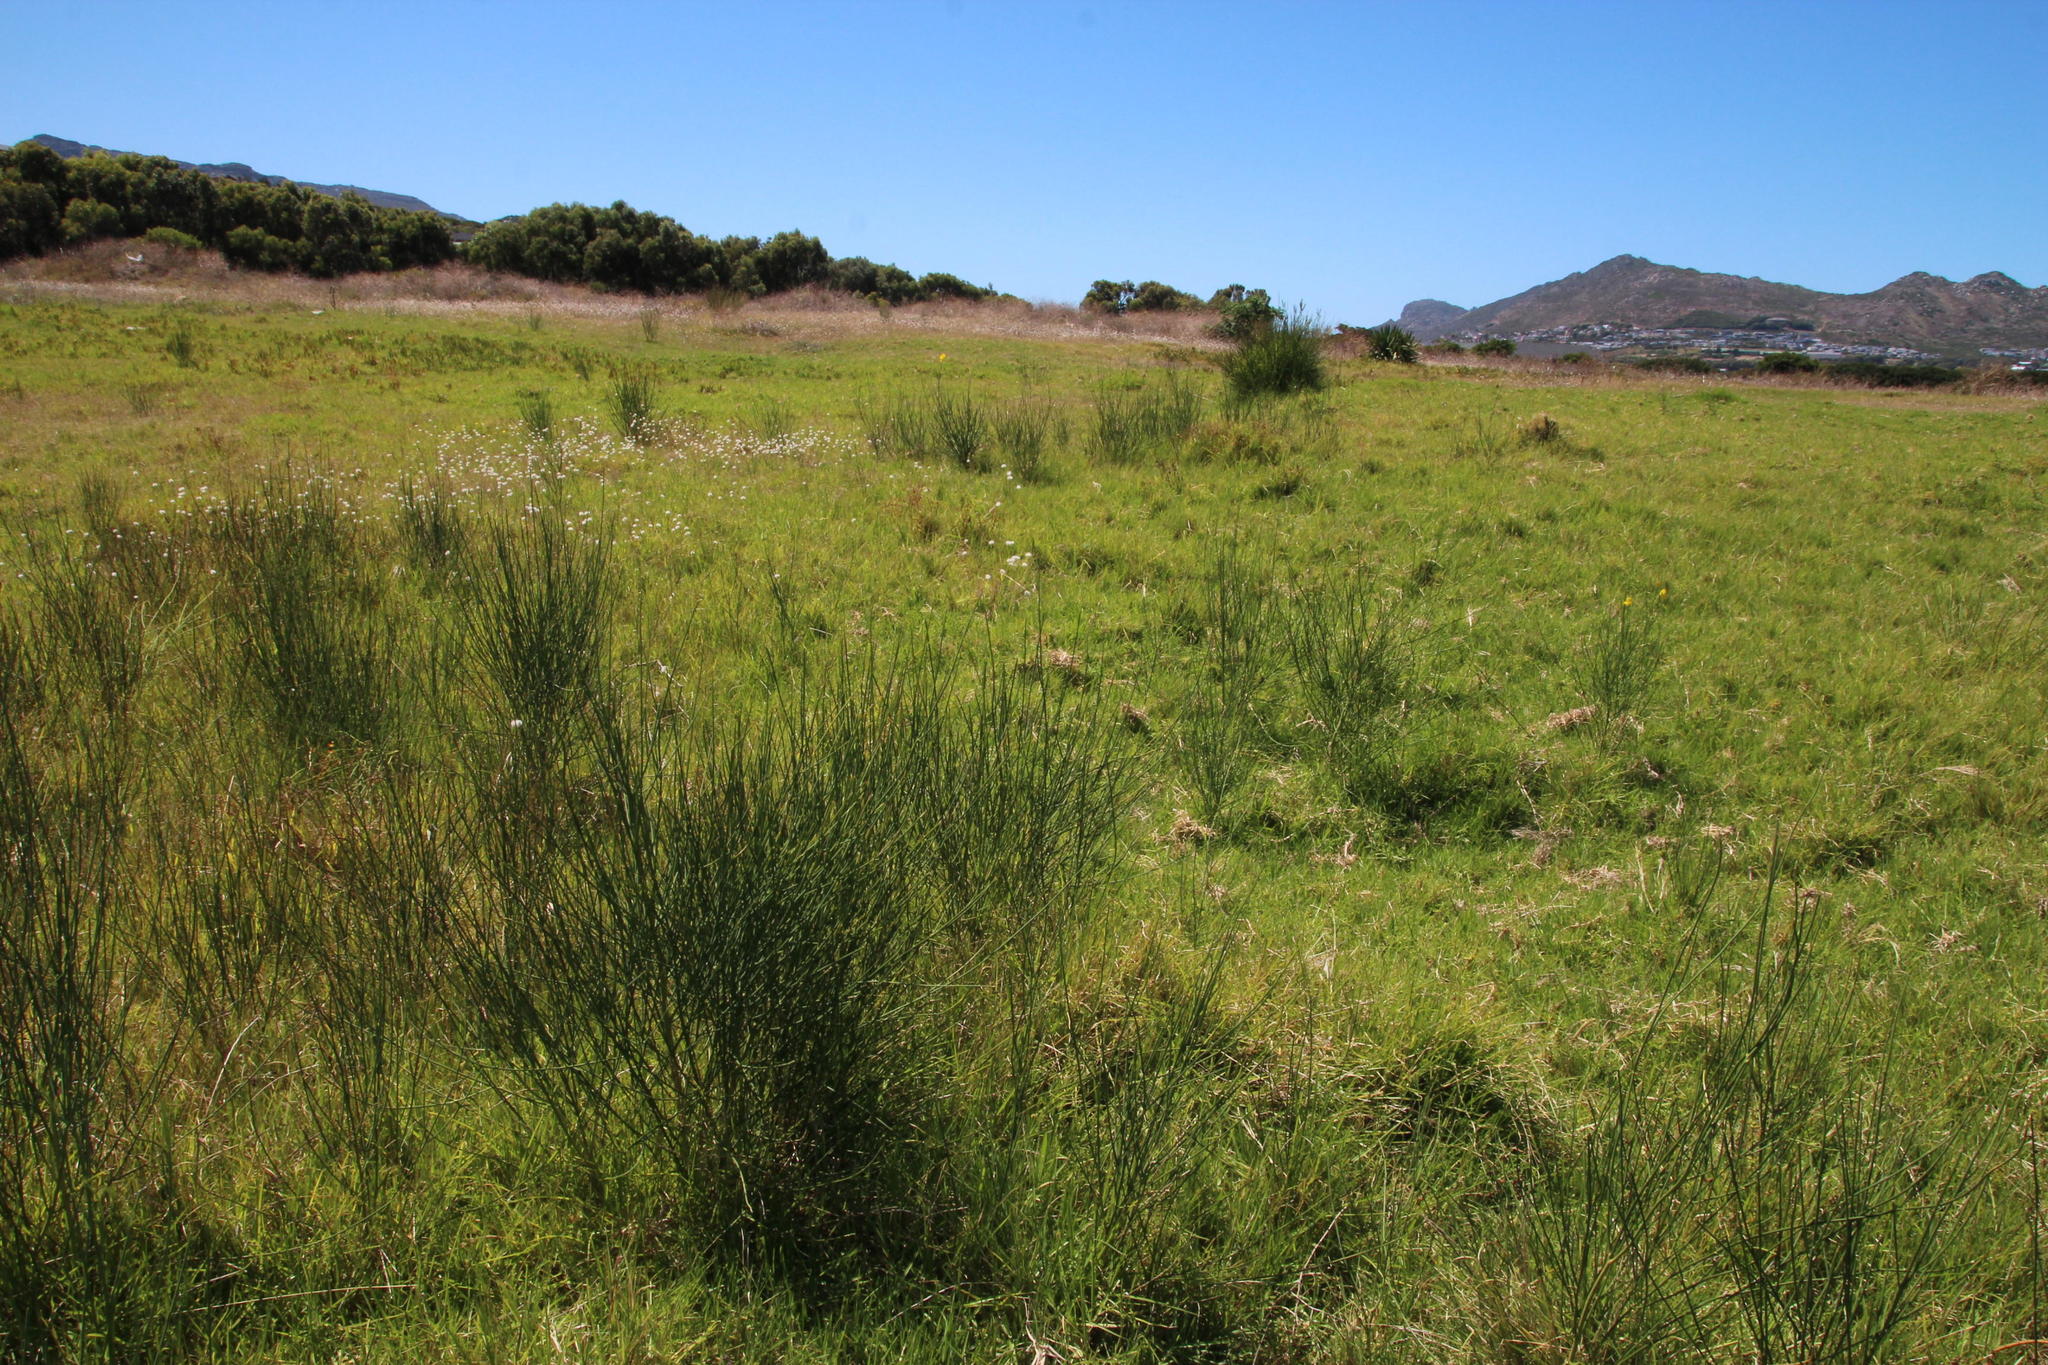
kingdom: Plantae
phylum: Tracheophyta
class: Magnoliopsida
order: Fabales
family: Fabaceae
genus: Spartium
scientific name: Spartium junceum
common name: Spanish broom
